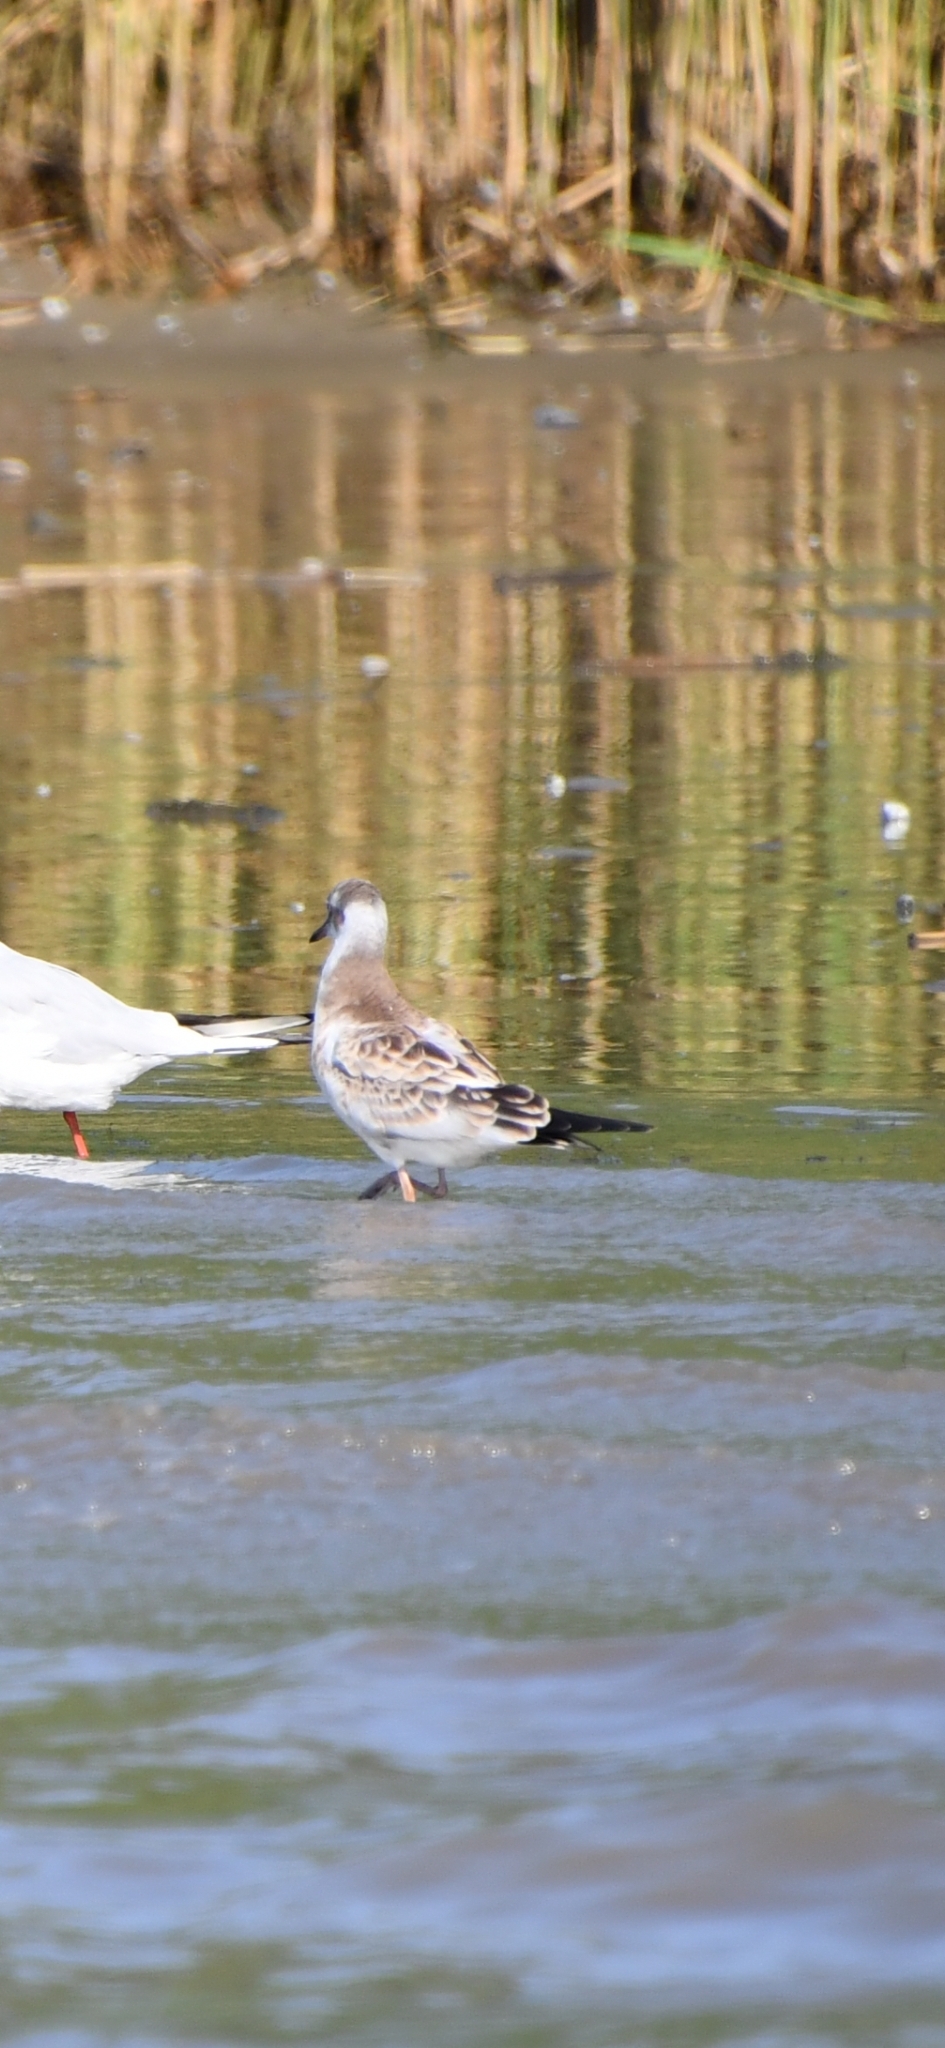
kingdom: Animalia
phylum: Chordata
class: Aves
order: Charadriiformes
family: Laridae
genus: Chroicocephalus
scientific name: Chroicocephalus ridibundus
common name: Black-headed gull
